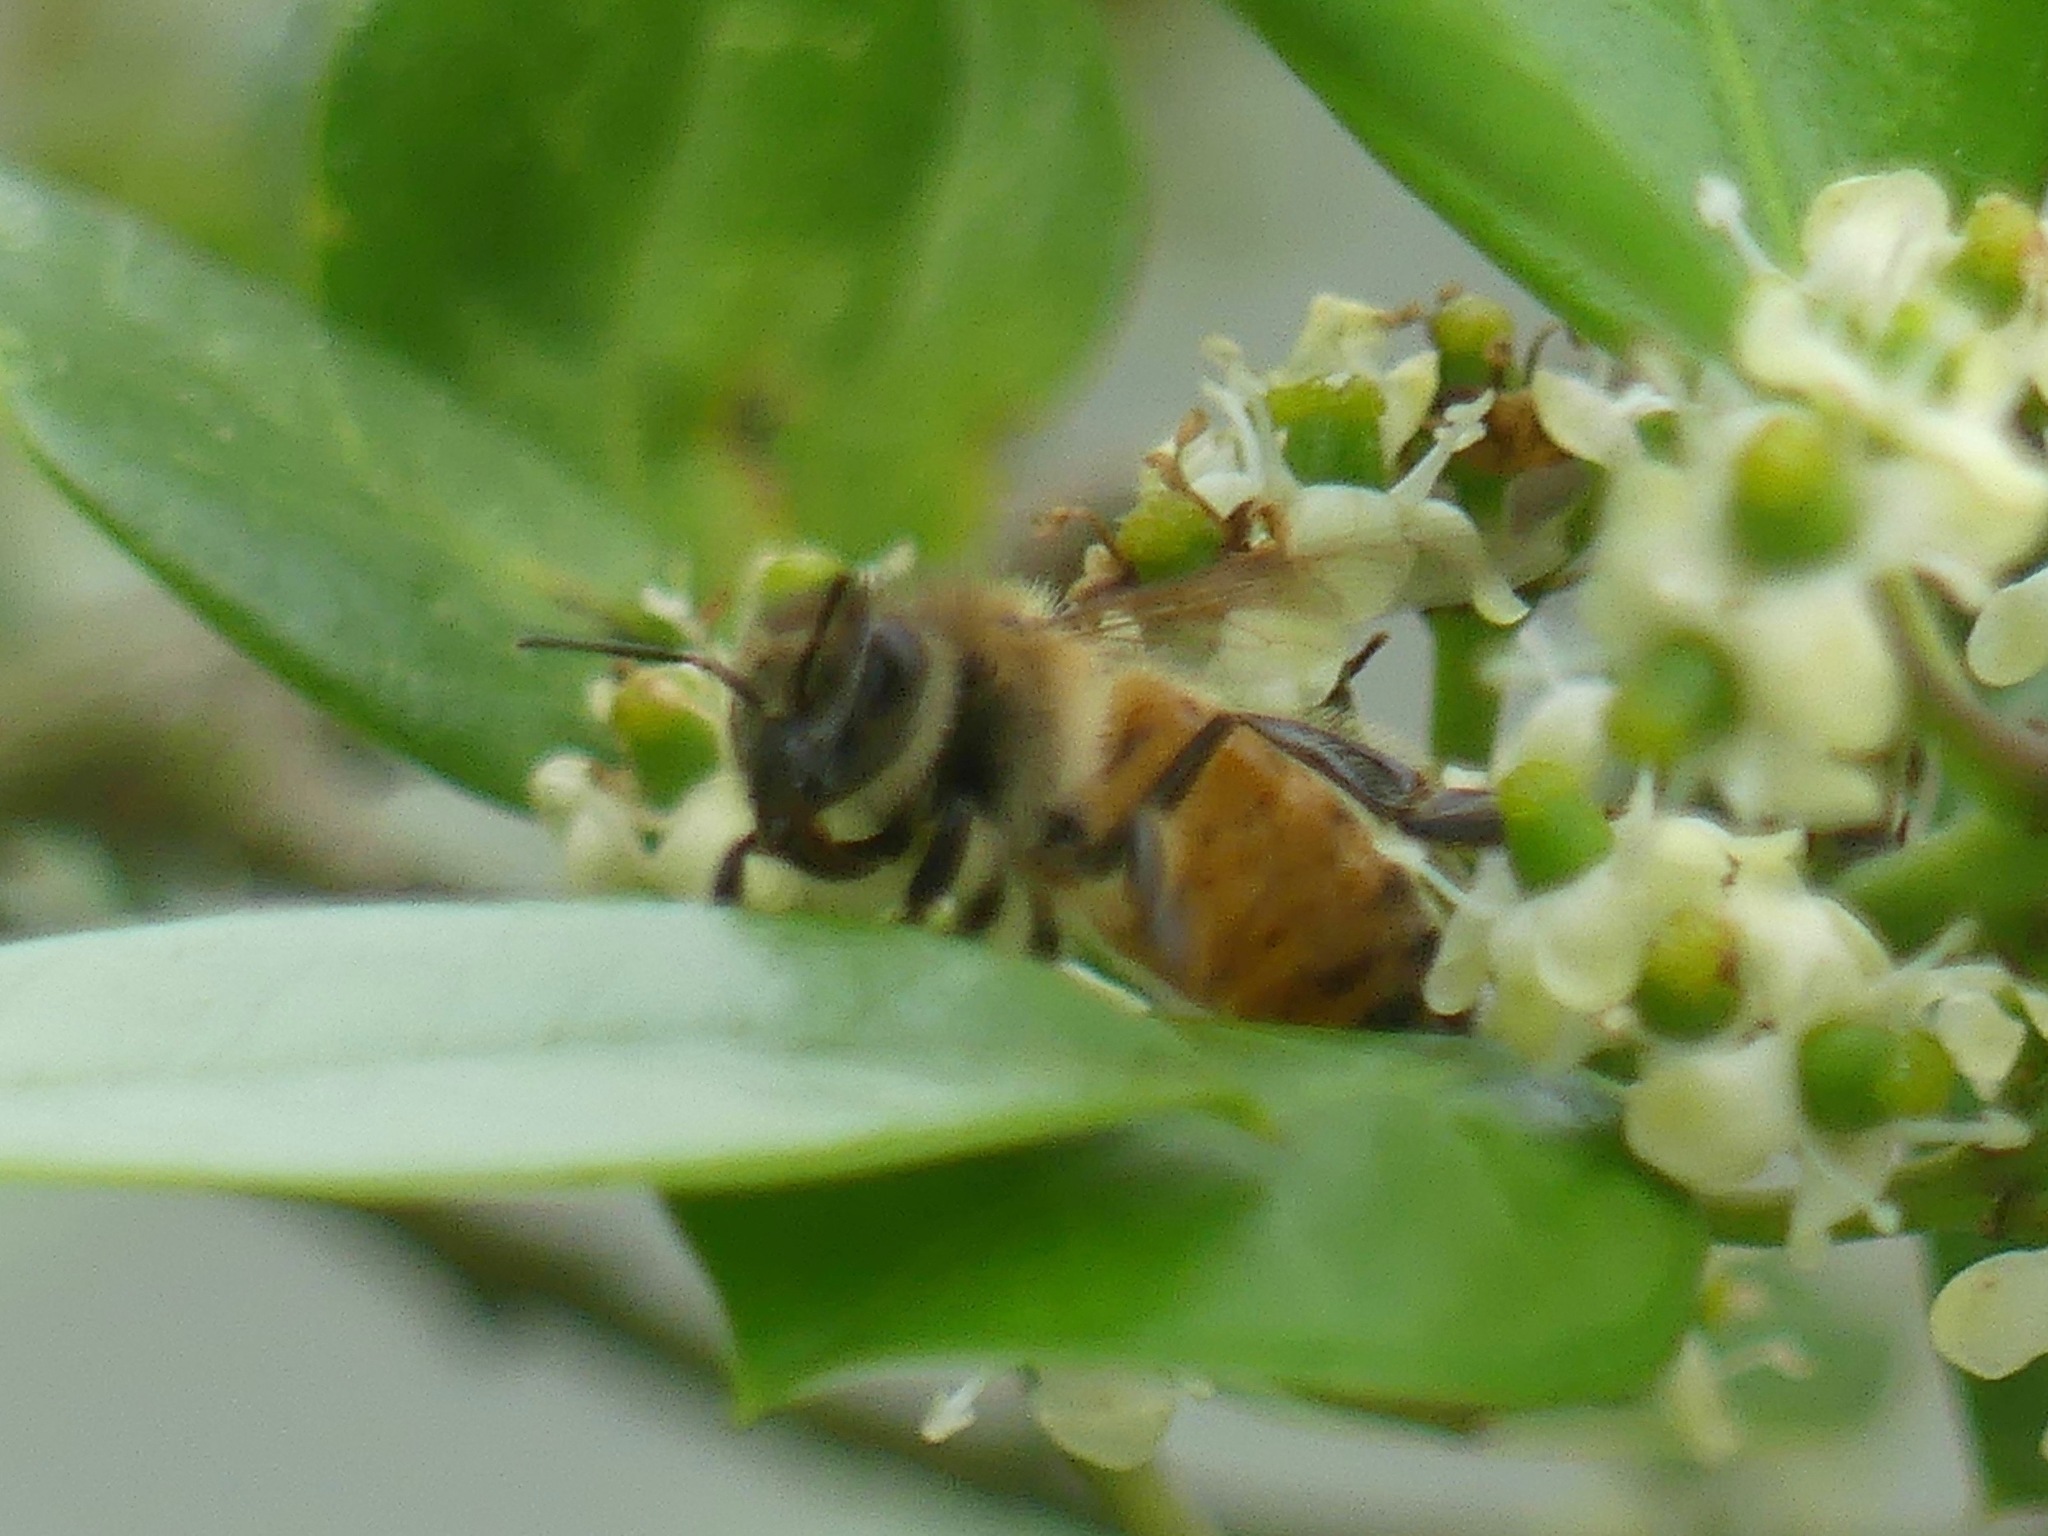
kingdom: Animalia
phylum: Arthropoda
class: Insecta
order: Hymenoptera
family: Apidae
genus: Apis
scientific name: Apis mellifera
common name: Honey bee
